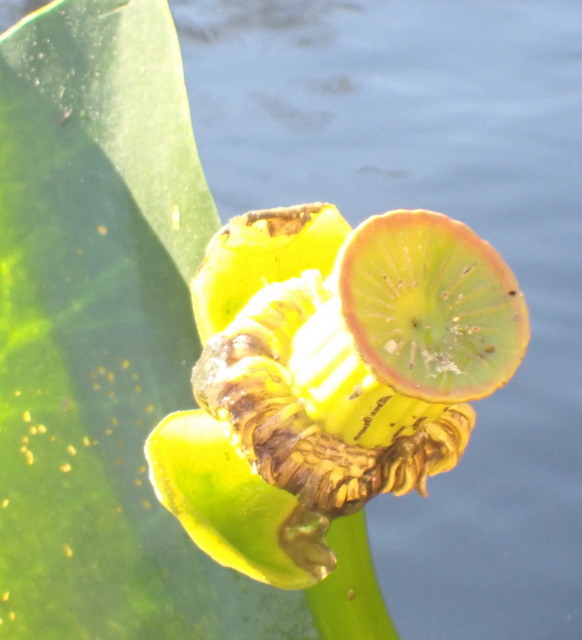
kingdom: Plantae
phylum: Tracheophyta
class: Magnoliopsida
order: Nymphaeales
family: Nymphaeaceae
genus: Nuphar
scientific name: Nuphar advena
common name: Spatter-dock
